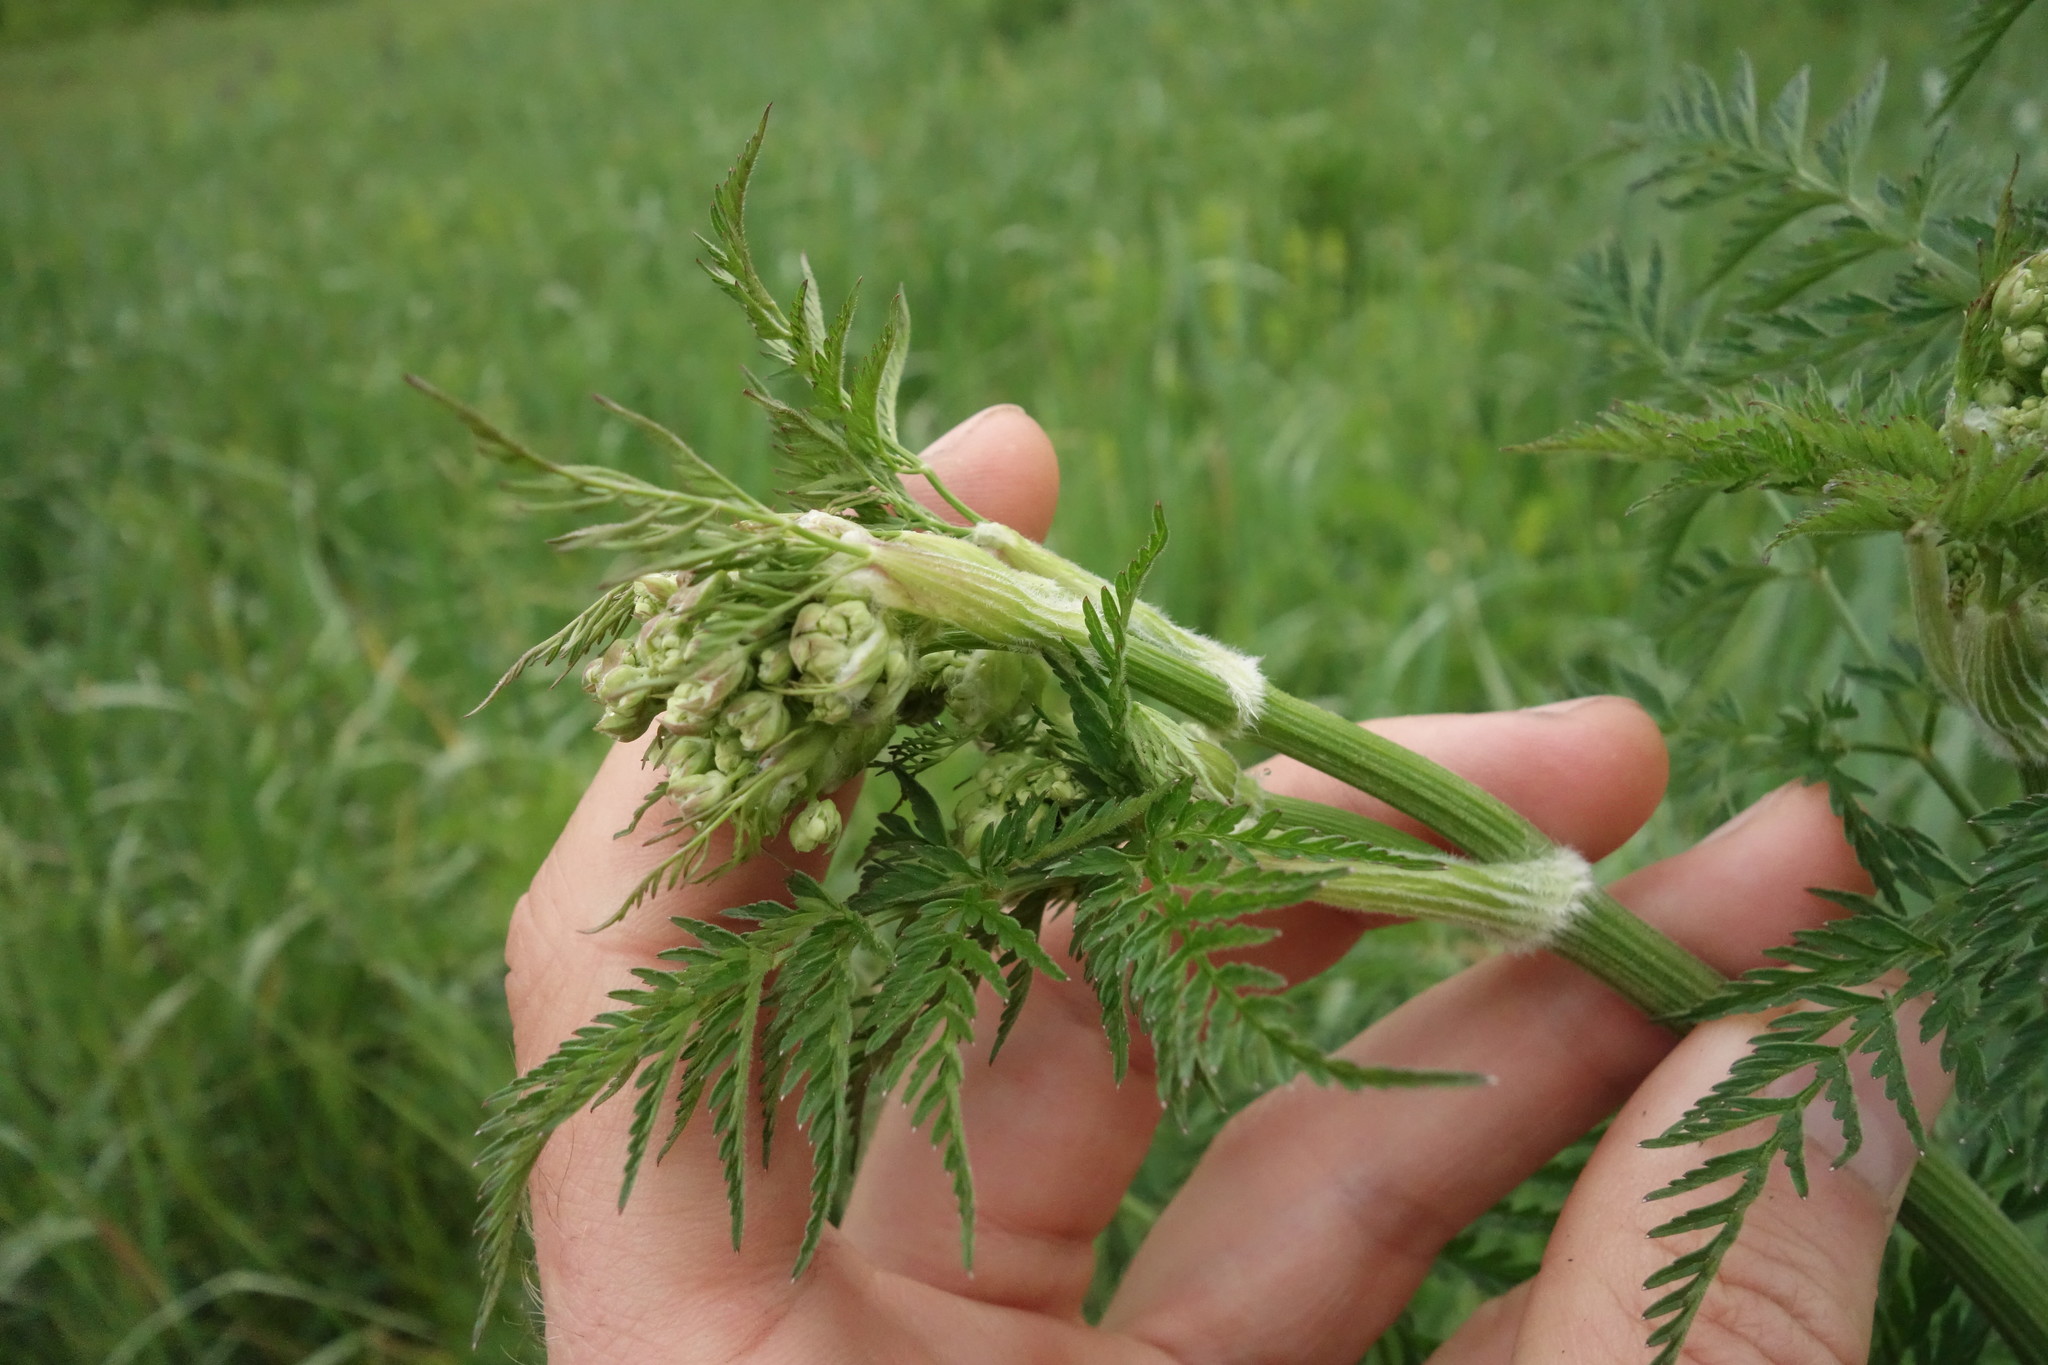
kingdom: Plantae
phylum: Tracheophyta
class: Magnoliopsida
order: Apiales
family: Apiaceae
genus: Anthriscus
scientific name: Anthriscus sylvestris
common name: Cow parsley
